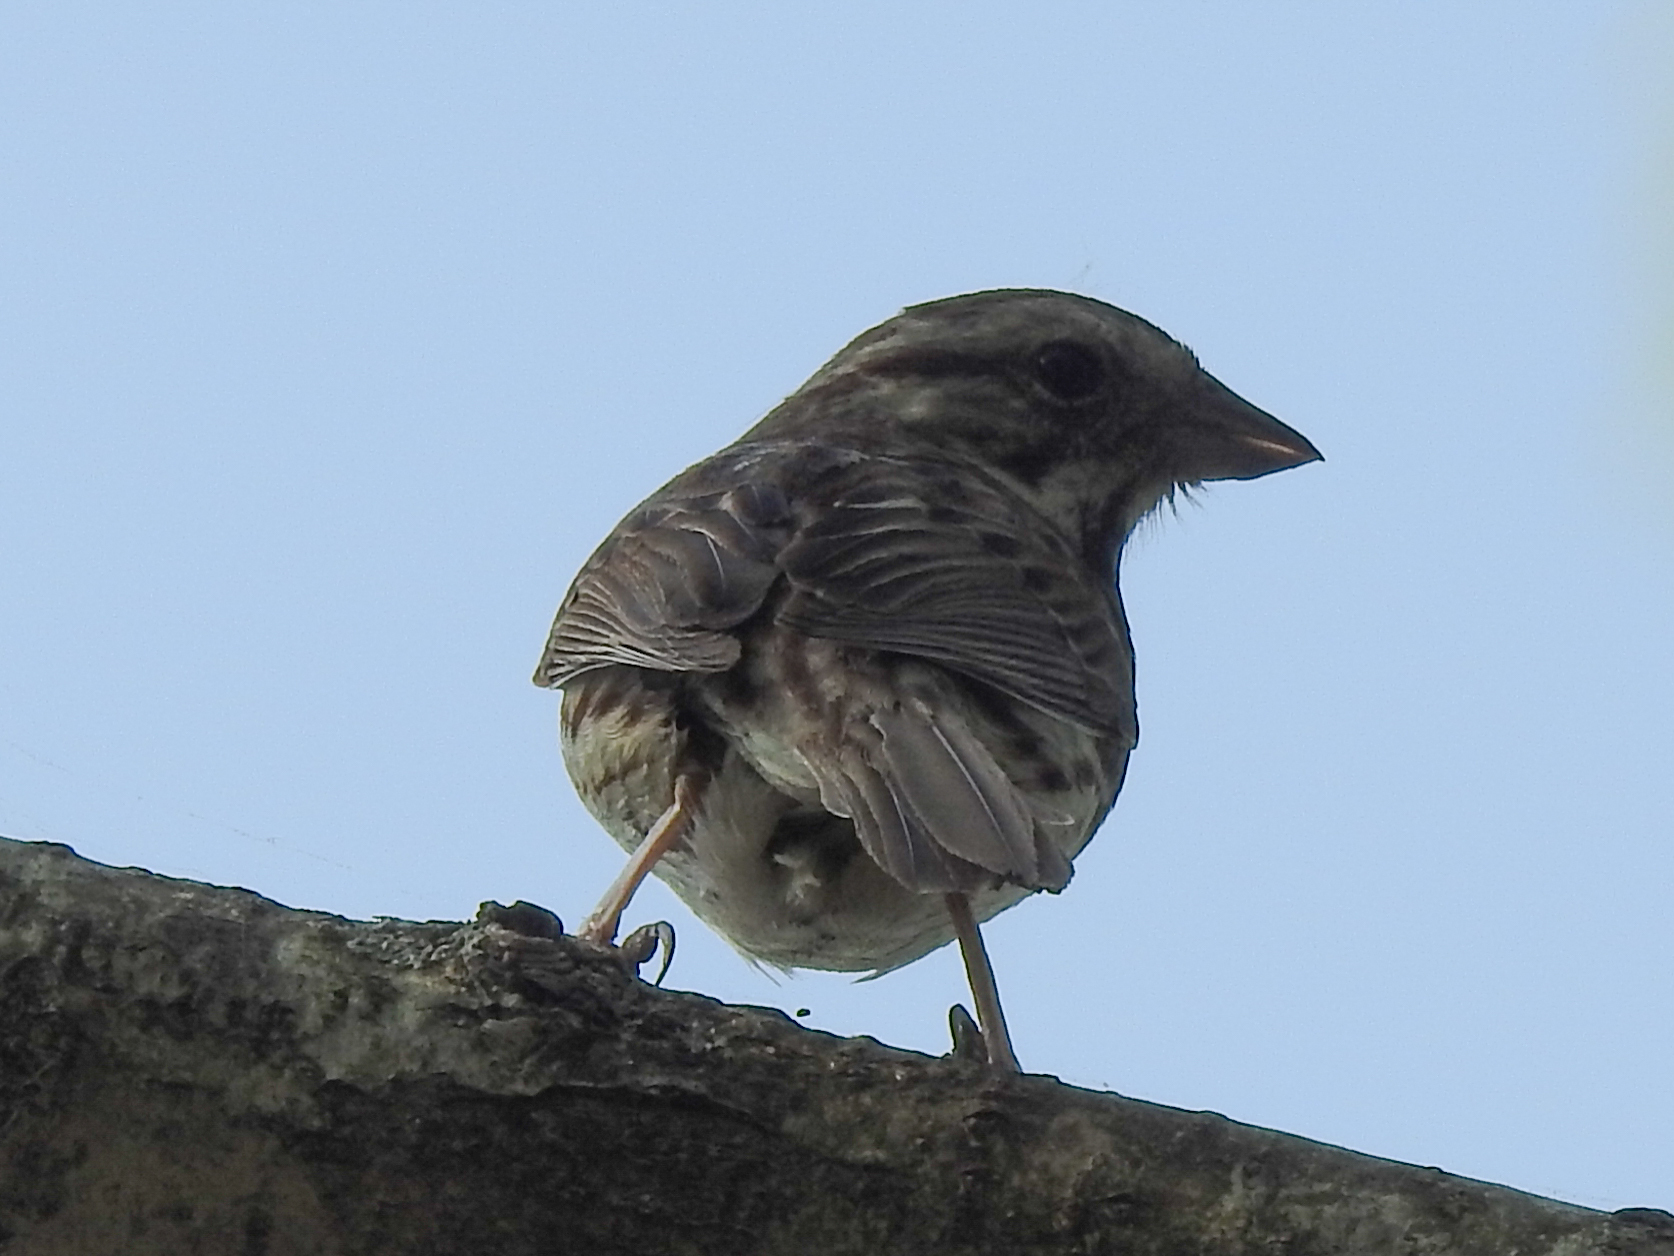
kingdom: Animalia
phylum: Chordata
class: Aves
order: Passeriformes
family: Passerellidae
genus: Melospiza
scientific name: Melospiza melodia
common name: Song sparrow
